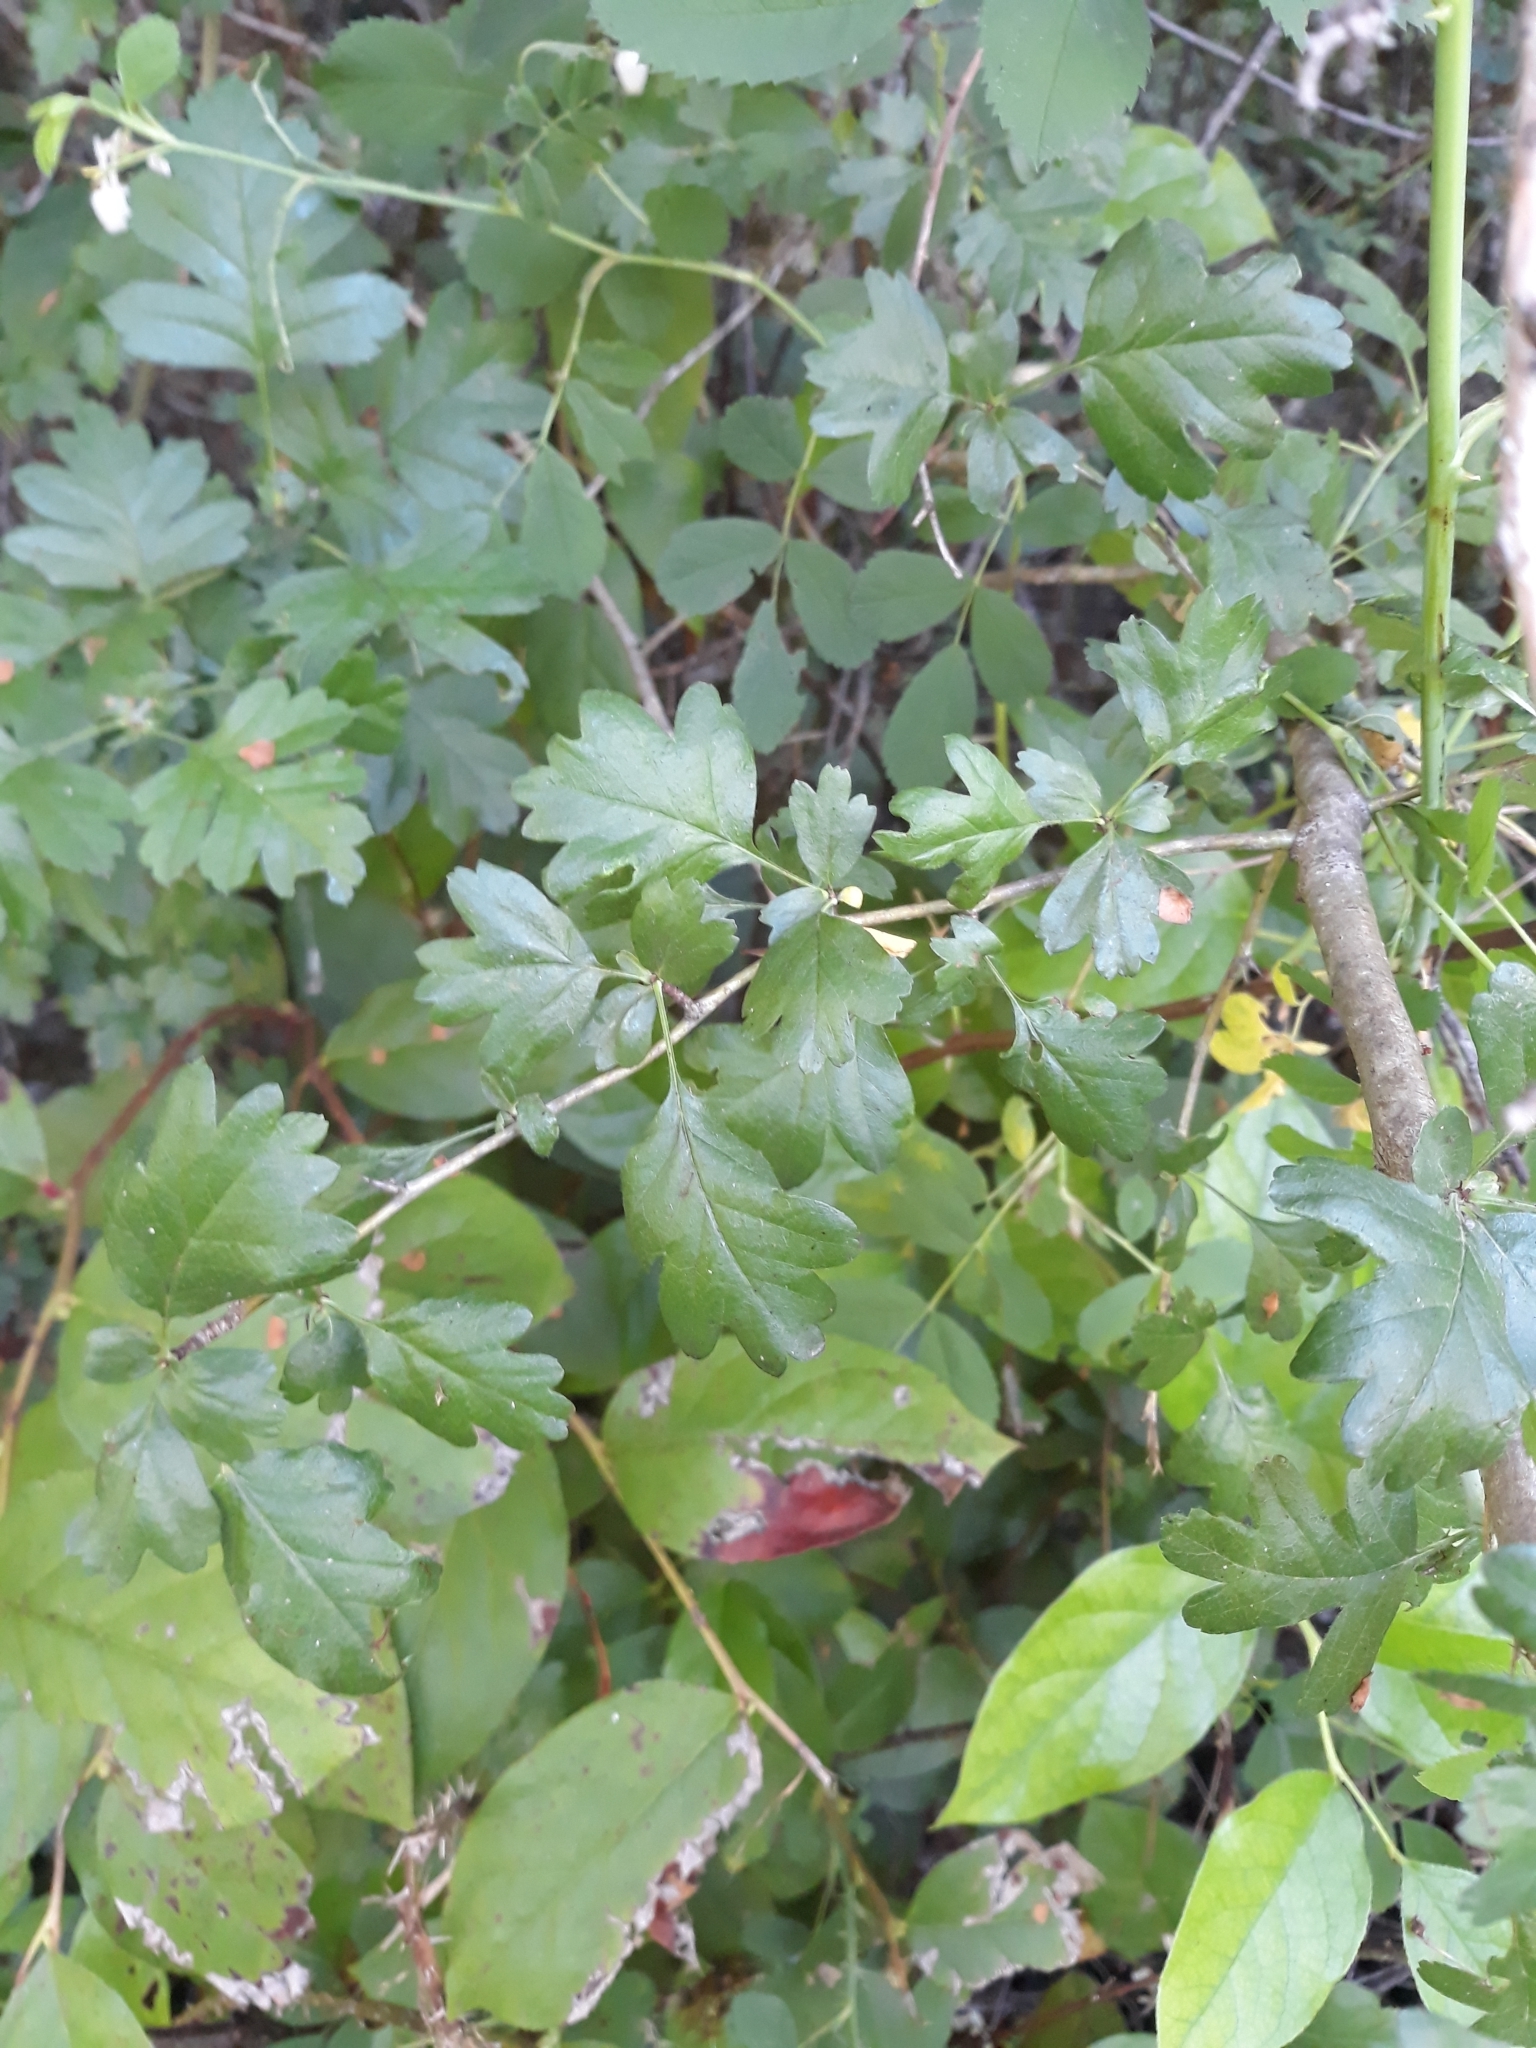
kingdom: Plantae
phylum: Tracheophyta
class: Magnoliopsida
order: Rosales
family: Rosaceae
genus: Crataegus
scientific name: Crataegus monogyna
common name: Hawthorn
